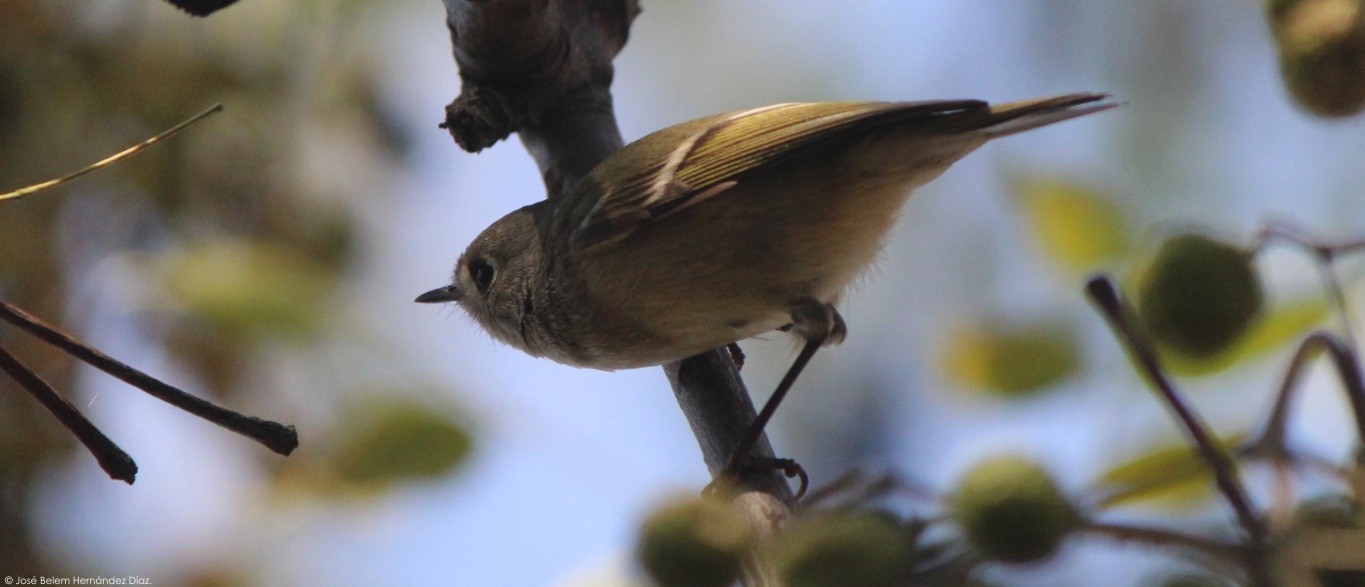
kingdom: Animalia
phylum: Chordata
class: Aves
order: Passeriformes
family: Regulidae
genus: Regulus
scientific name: Regulus calendula
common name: Ruby-crowned kinglet
